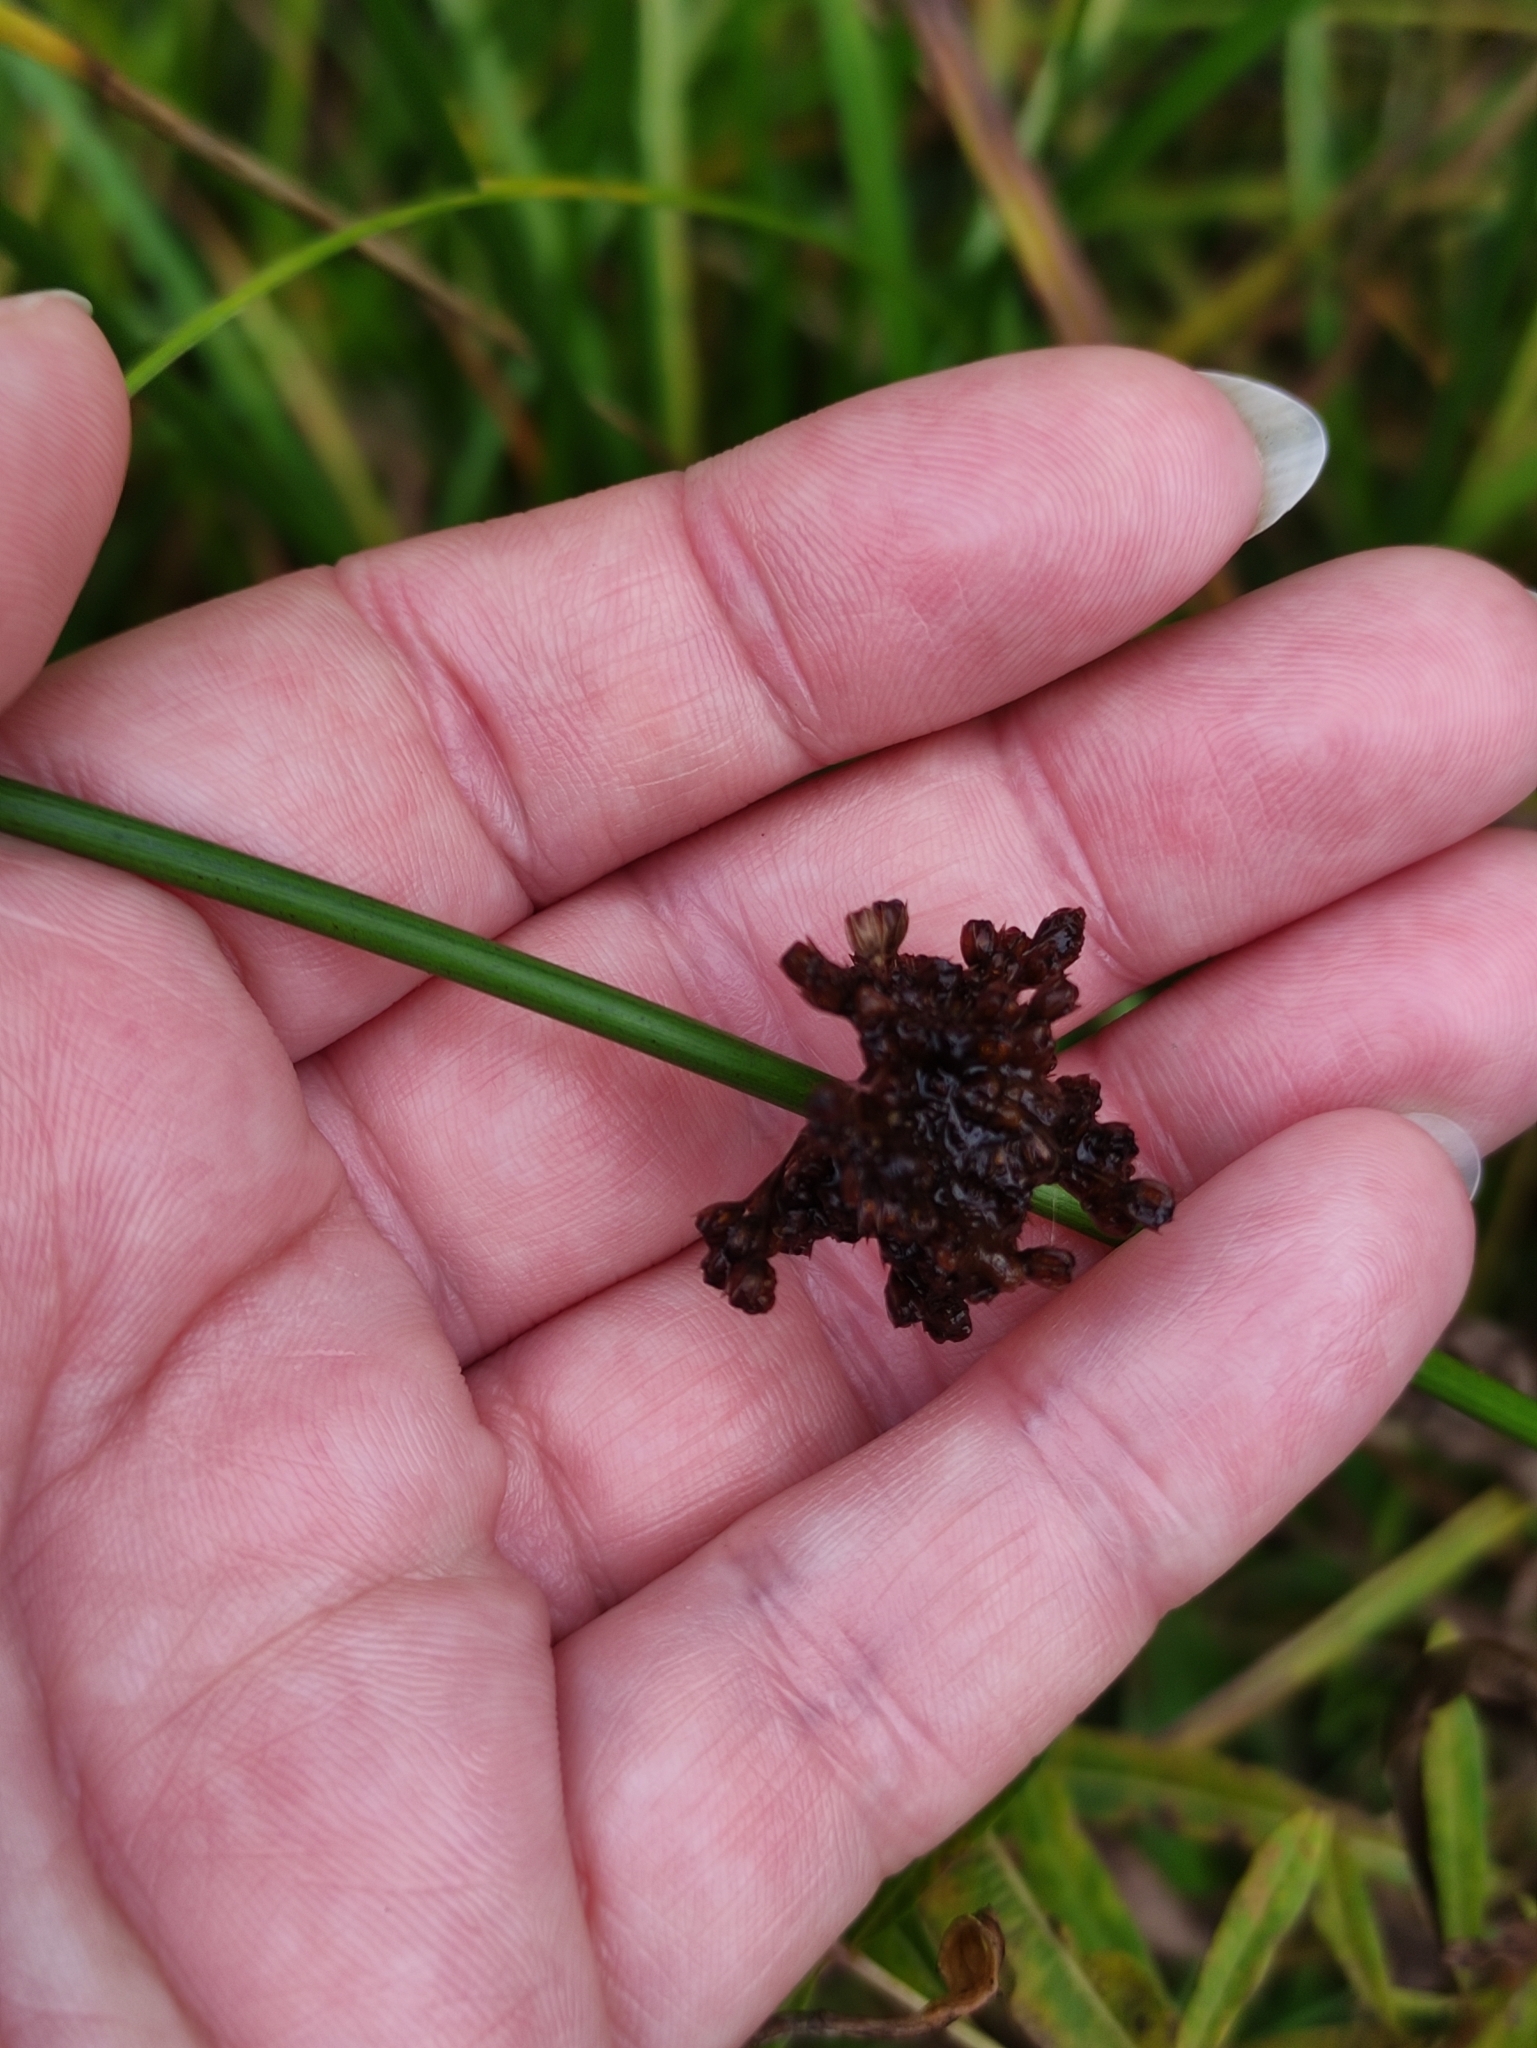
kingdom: Plantae
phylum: Tracheophyta
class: Liliopsida
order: Poales
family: Juncaceae
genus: Juncus
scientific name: Juncus effusus
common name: Soft rush
